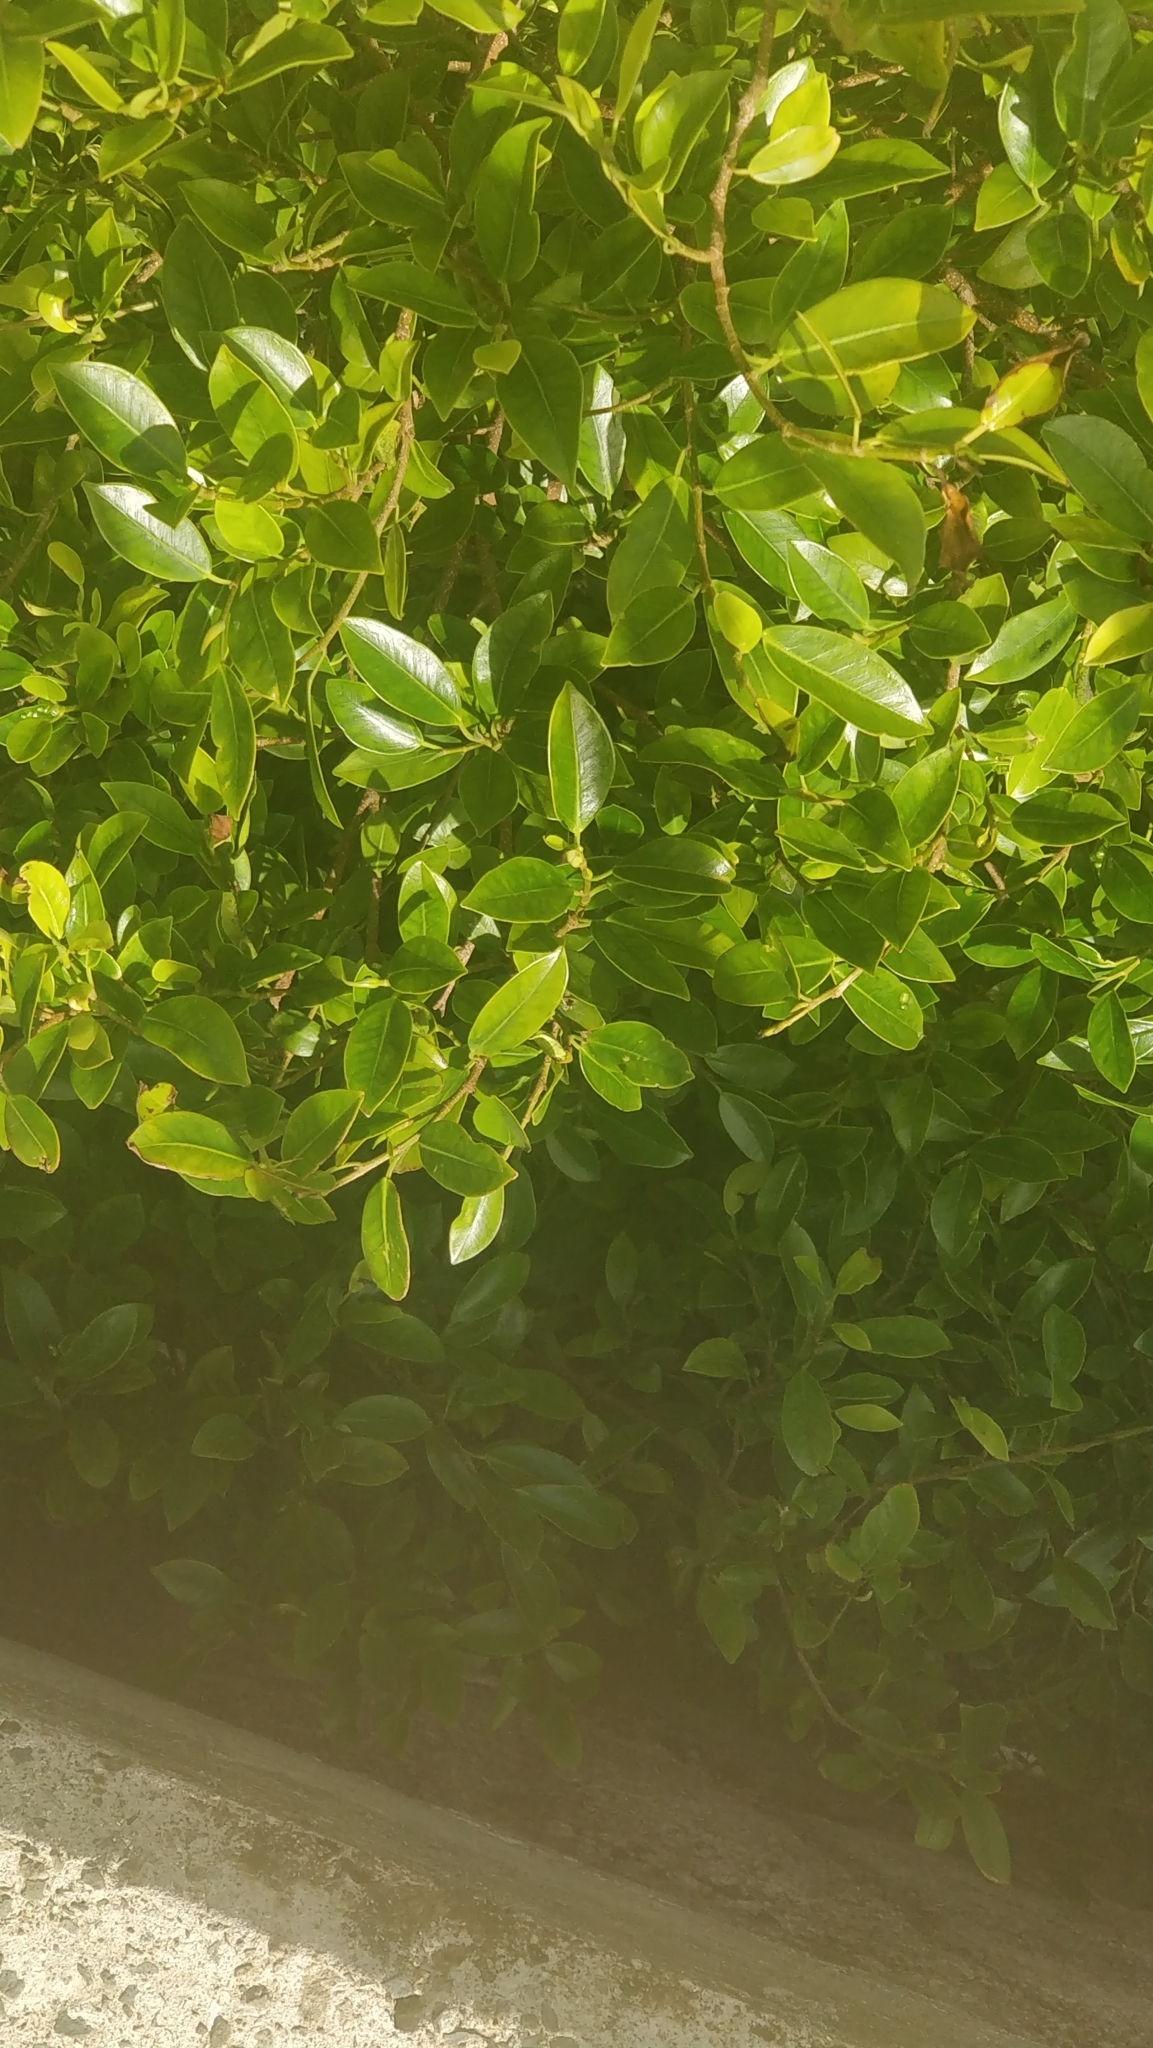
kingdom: Plantae
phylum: Tracheophyta
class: Magnoliopsida
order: Rosales
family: Moraceae
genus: Ficus
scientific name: Ficus microcarpa
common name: Chinese banyan
